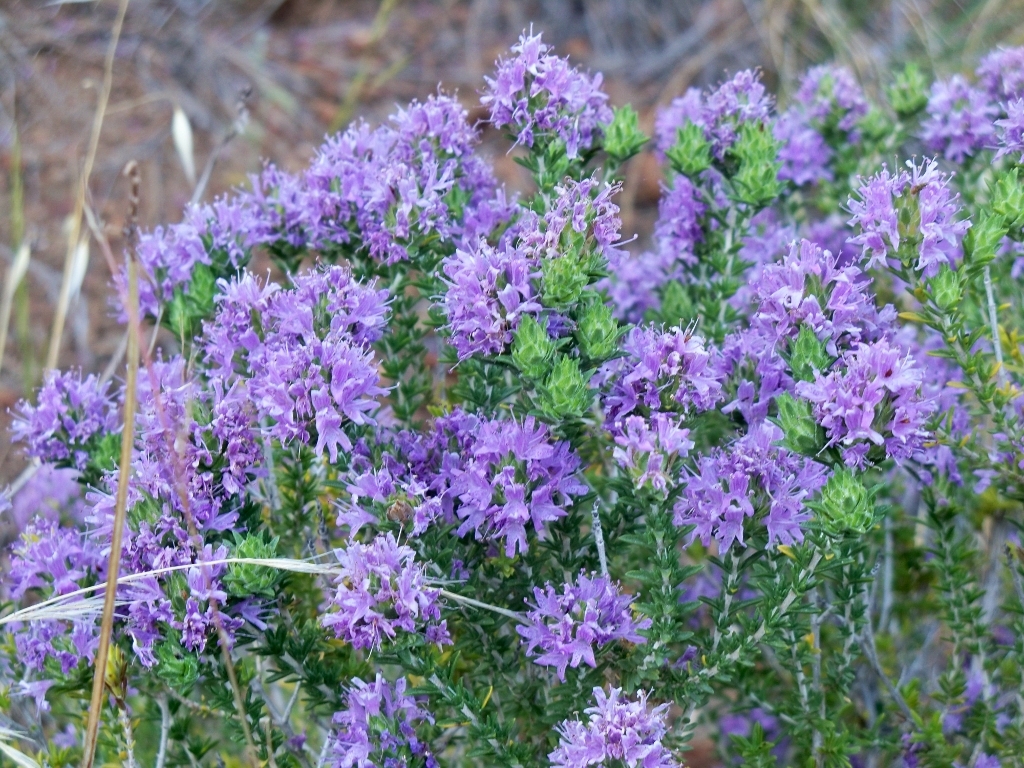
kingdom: Plantae
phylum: Tracheophyta
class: Magnoliopsida
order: Lamiales
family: Lamiaceae
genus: Thymbra
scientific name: Thymbra capitata
